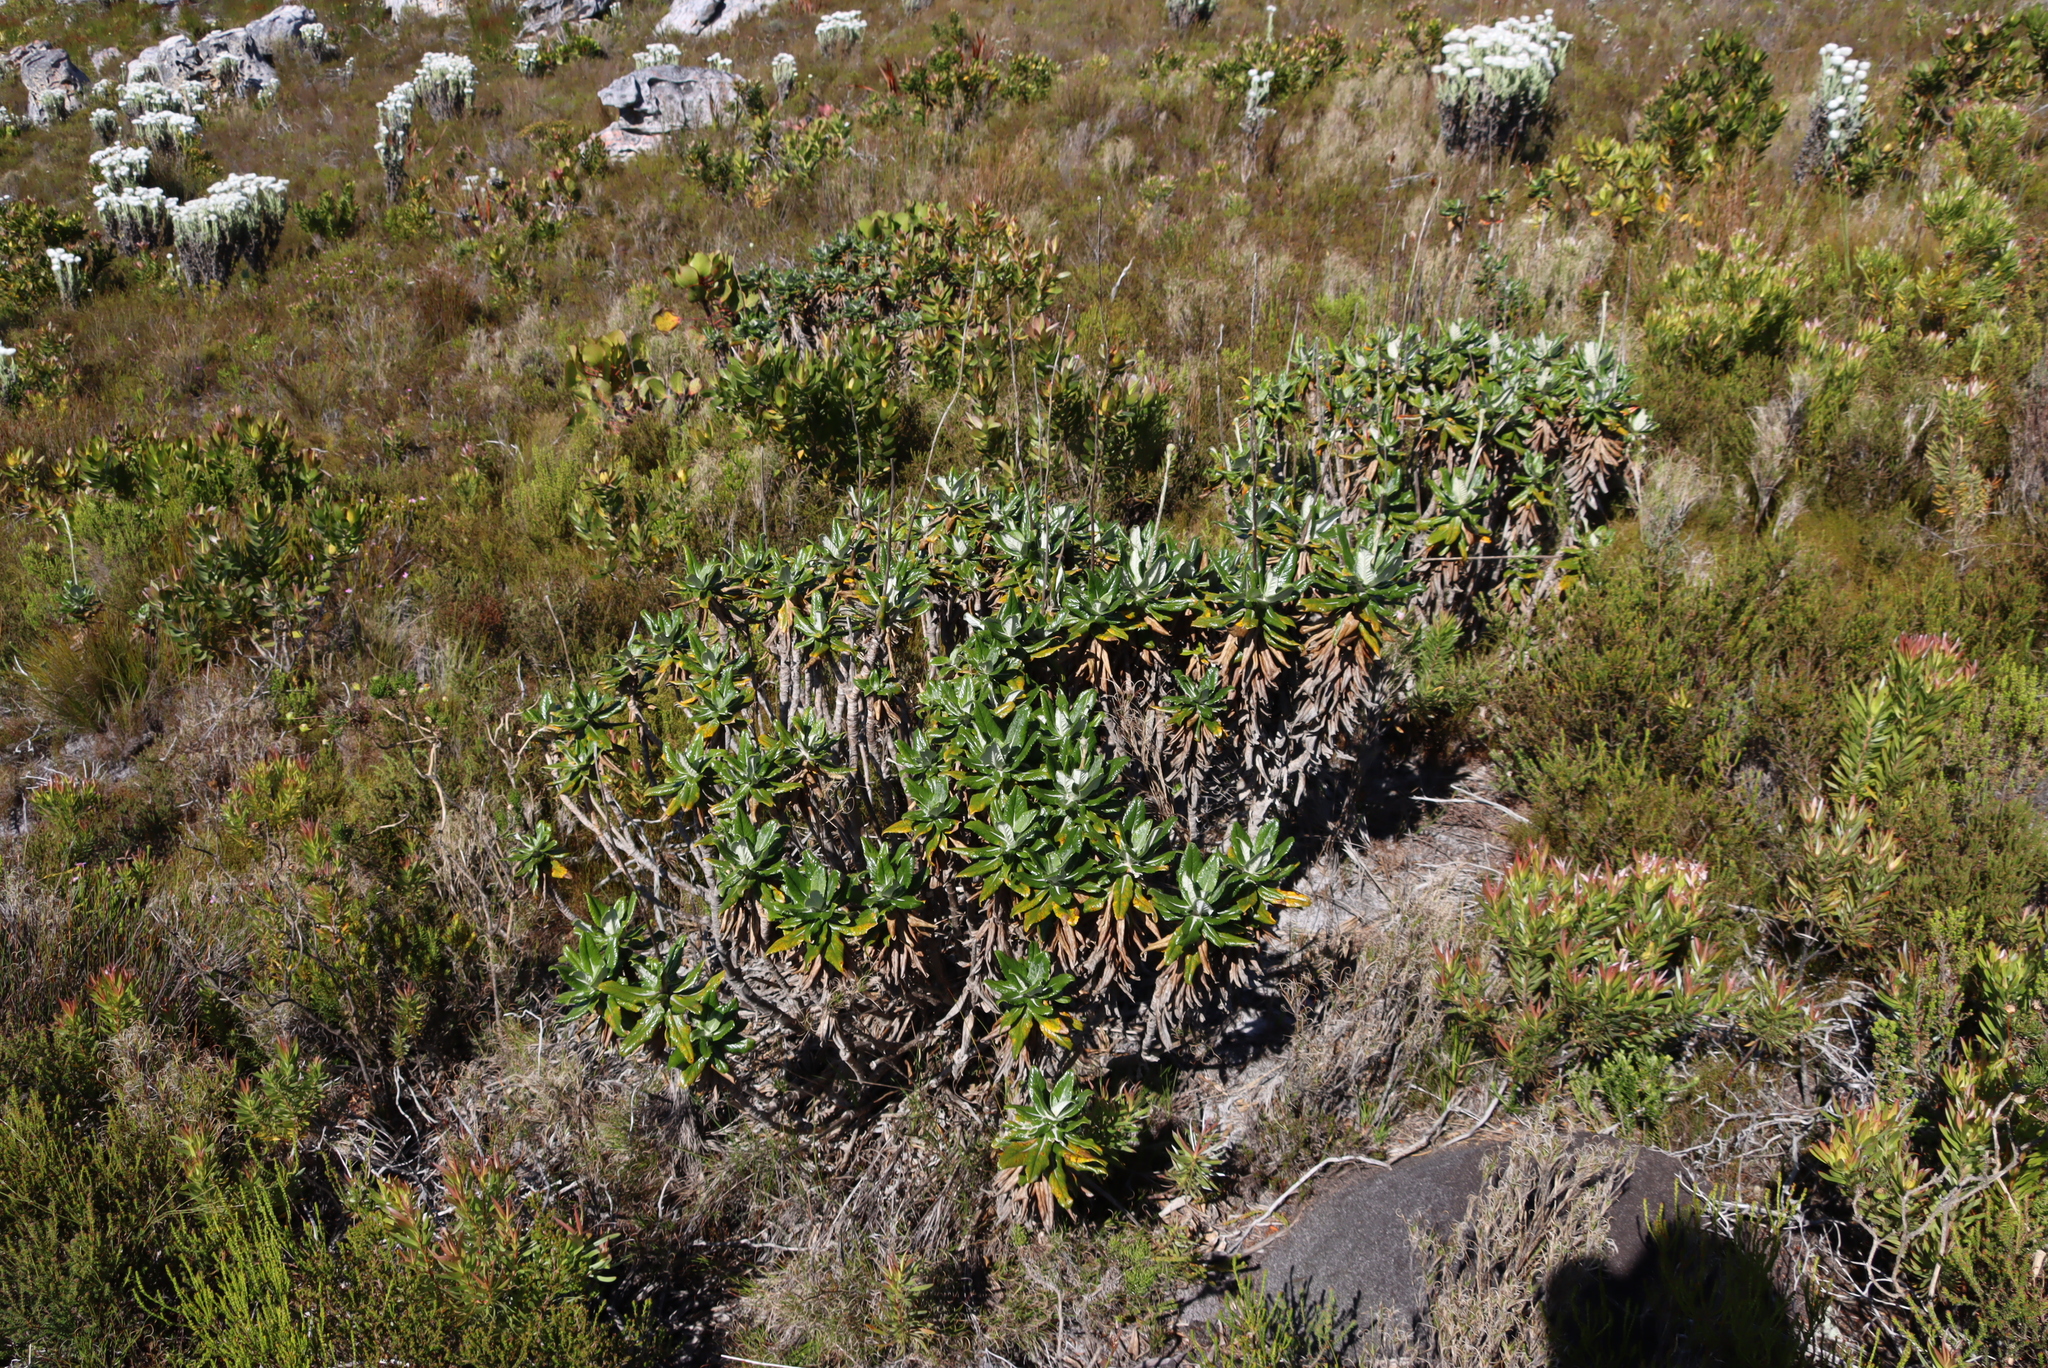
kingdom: Plantae
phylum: Tracheophyta
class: Magnoliopsida
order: Apiales
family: Apiaceae
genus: Hermas
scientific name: Hermas villosa
